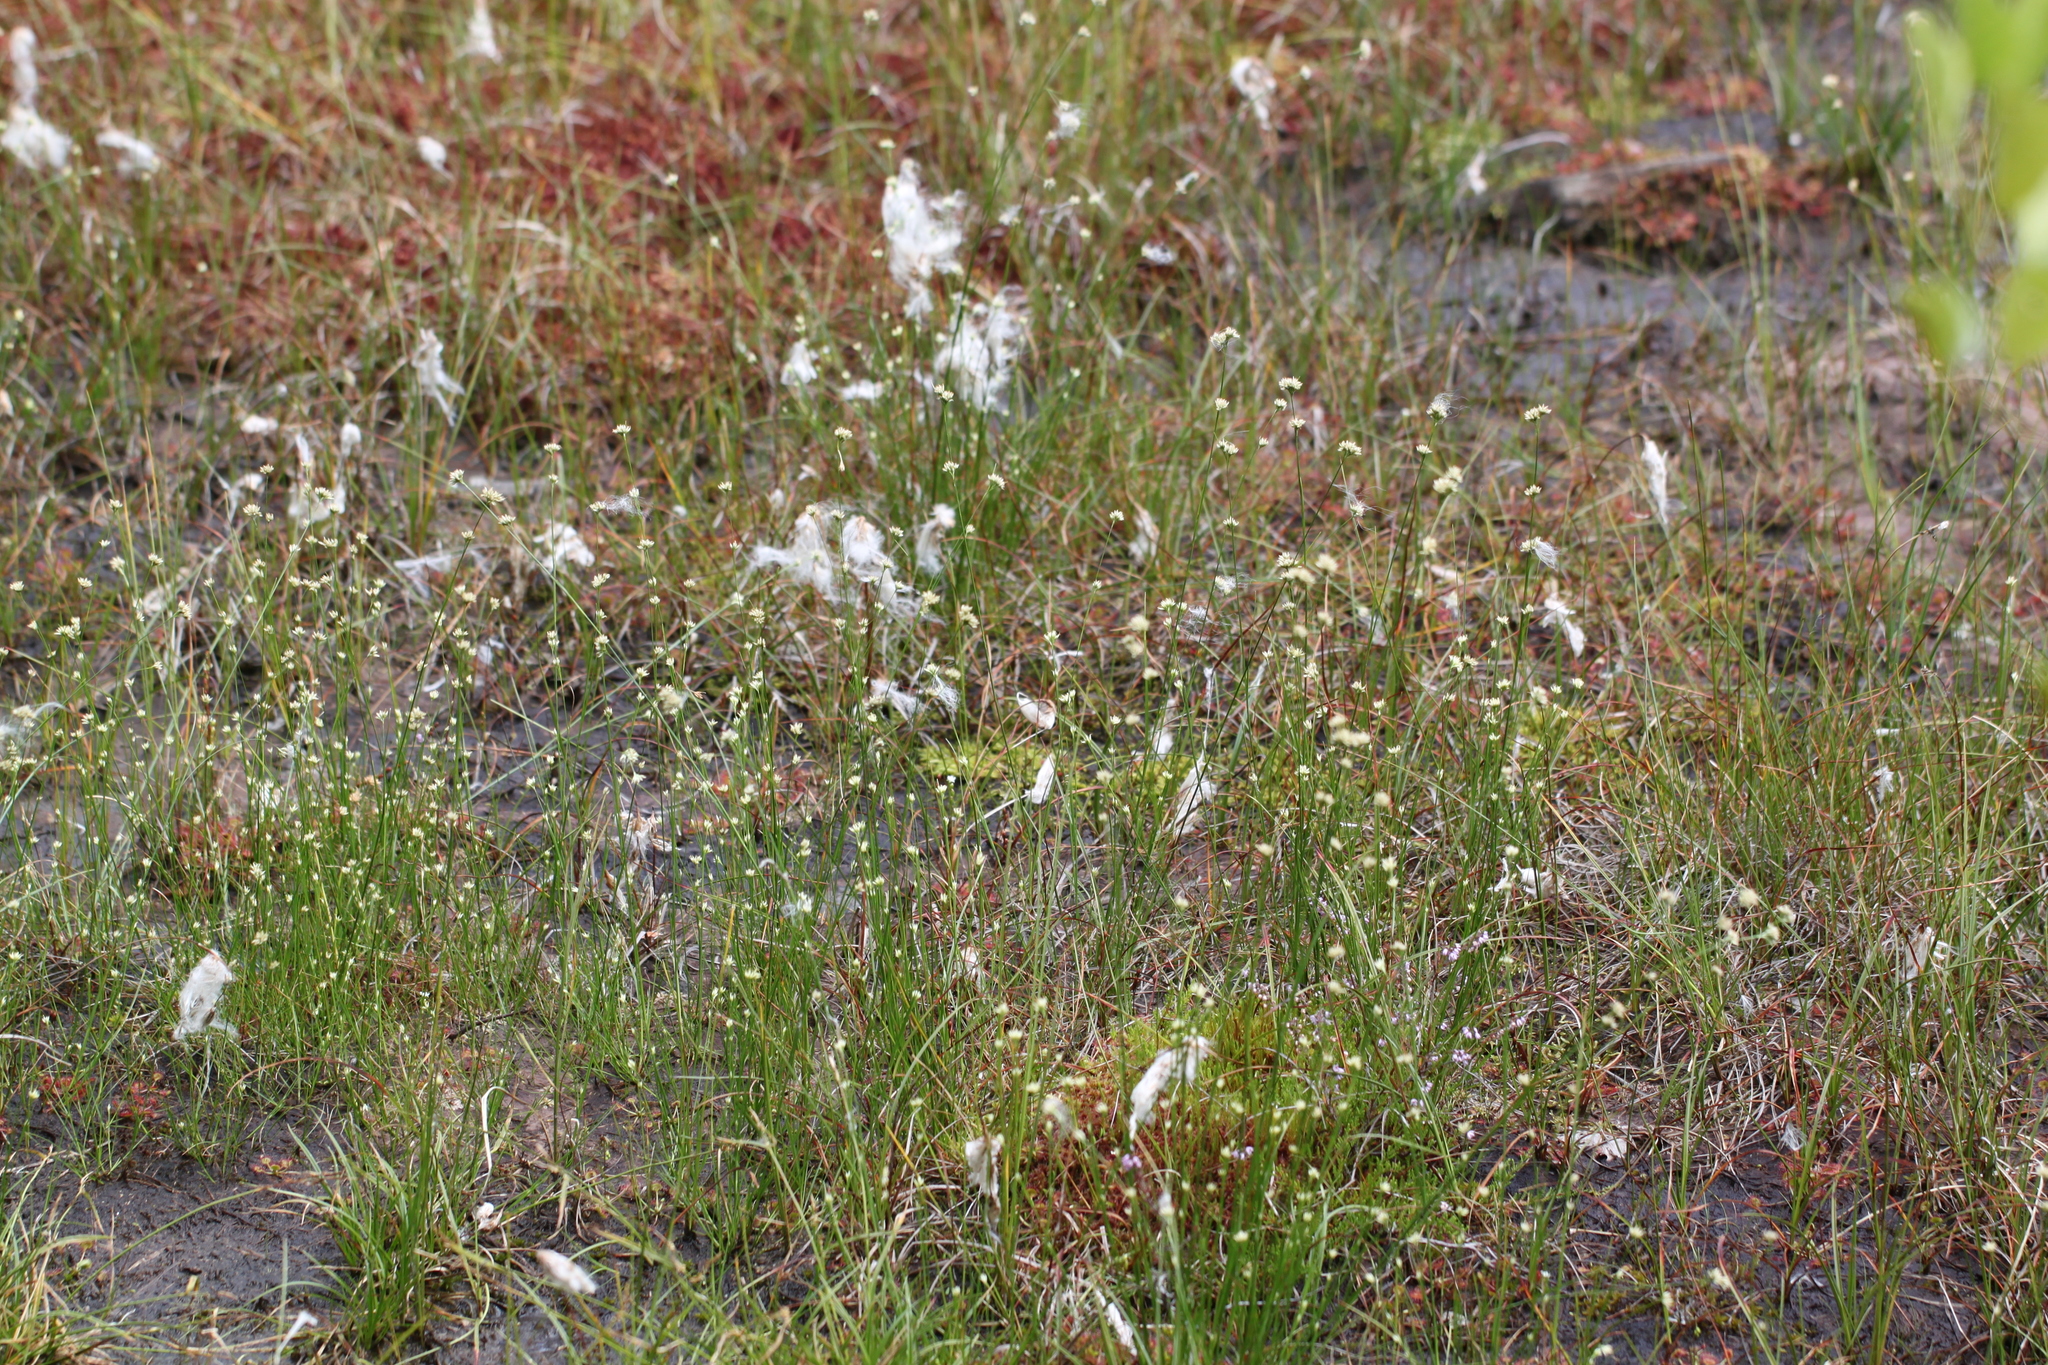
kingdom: Plantae
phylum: Tracheophyta
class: Liliopsida
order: Poales
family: Cyperaceae
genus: Rhynchospora
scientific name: Rhynchospora alba
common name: White beak-sedge
